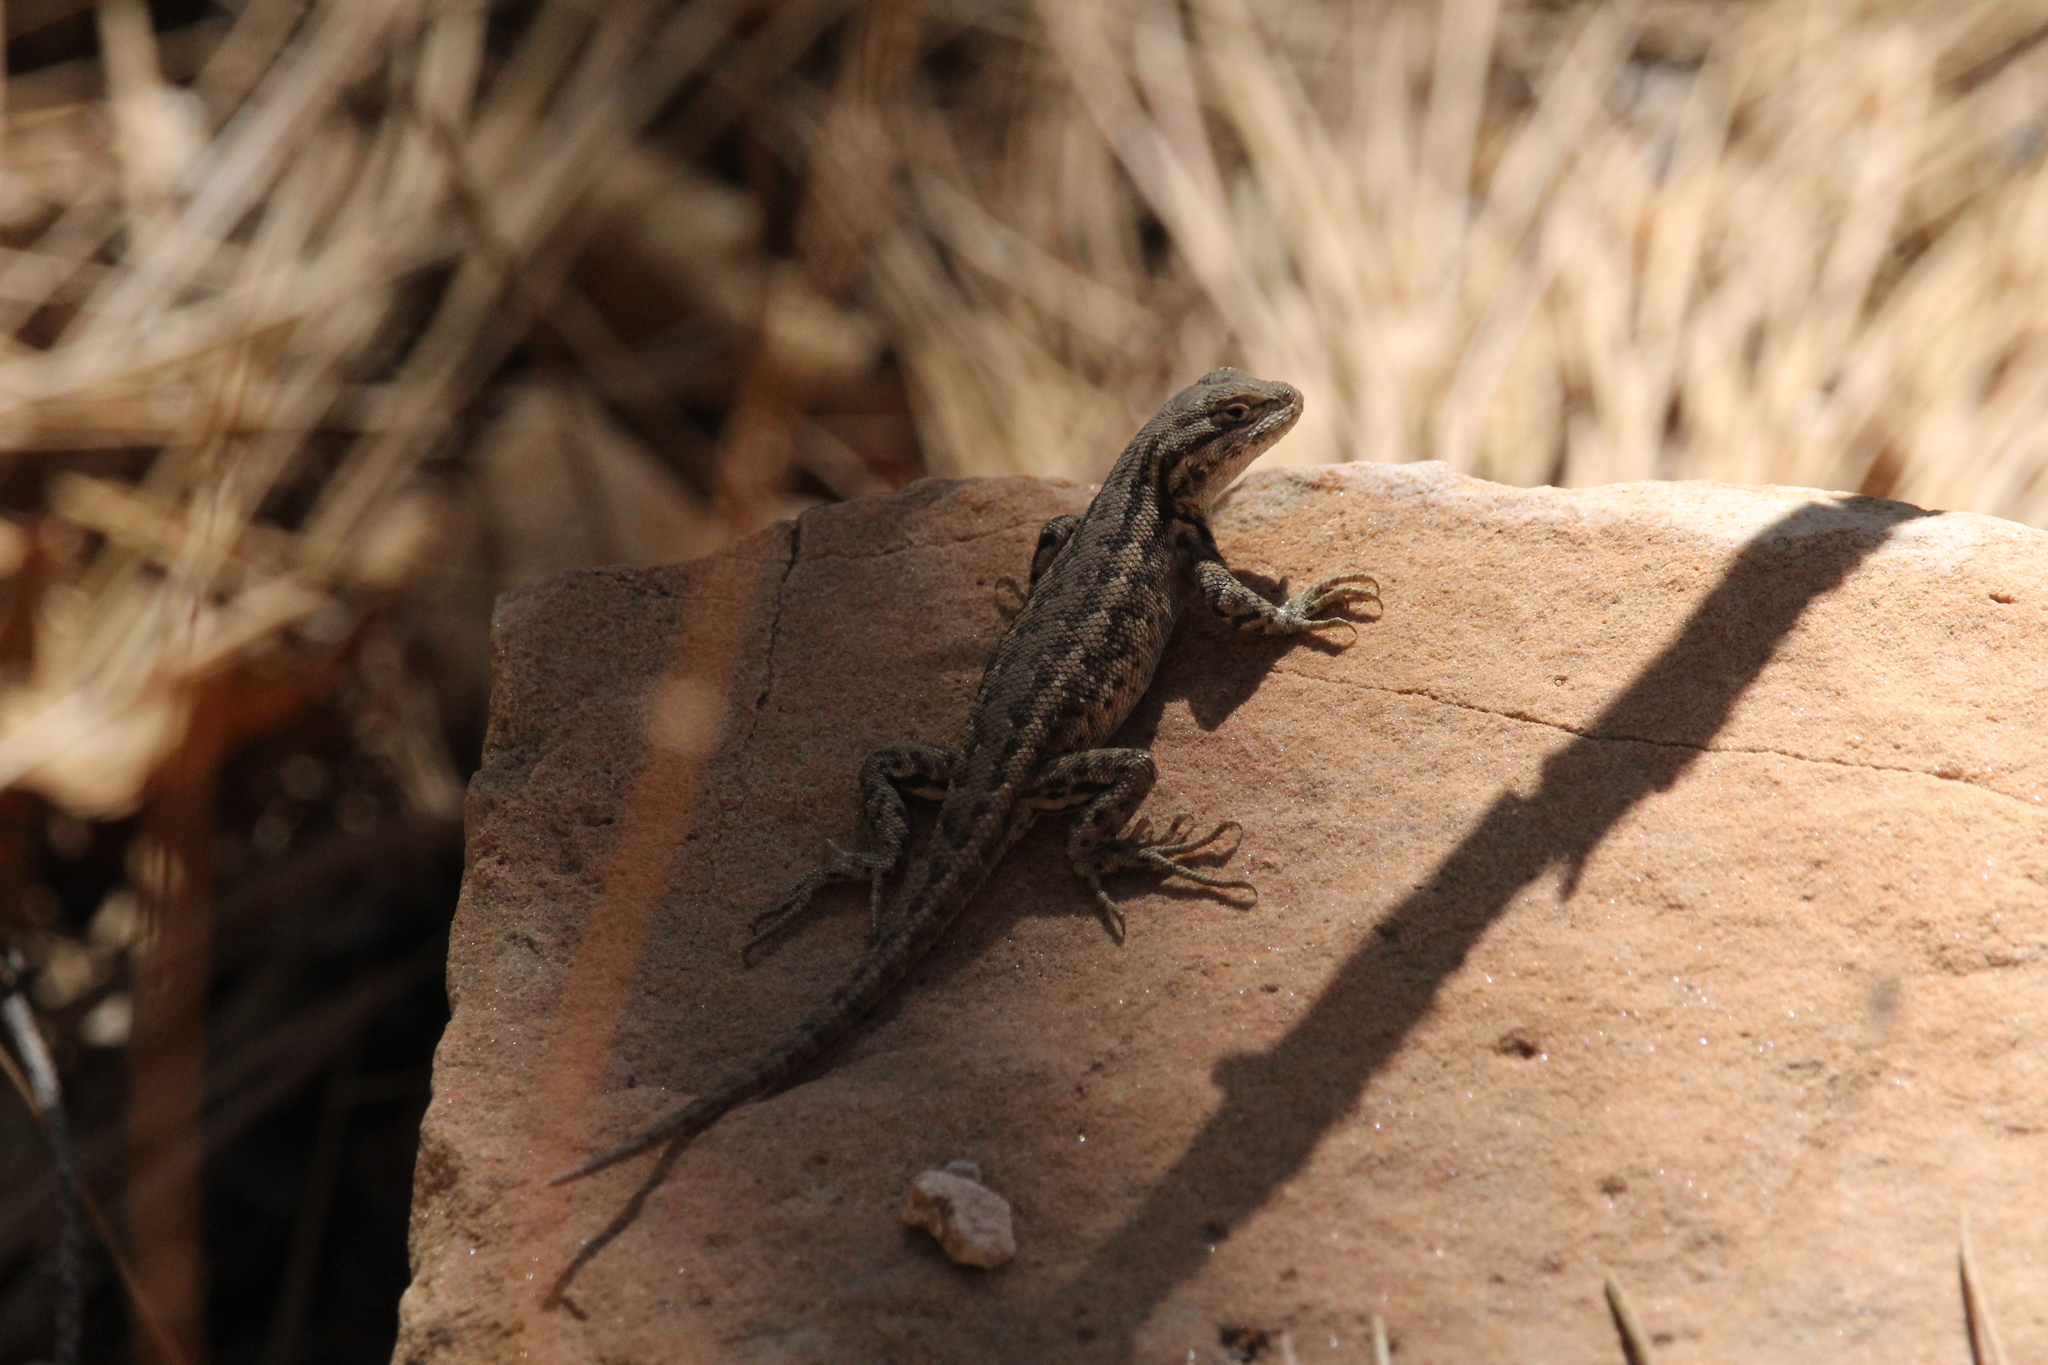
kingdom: Animalia
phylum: Chordata
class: Squamata
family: Phrynosomatidae
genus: Sceloporus
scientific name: Sceloporus graciosus
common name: Sagebrush lizard
